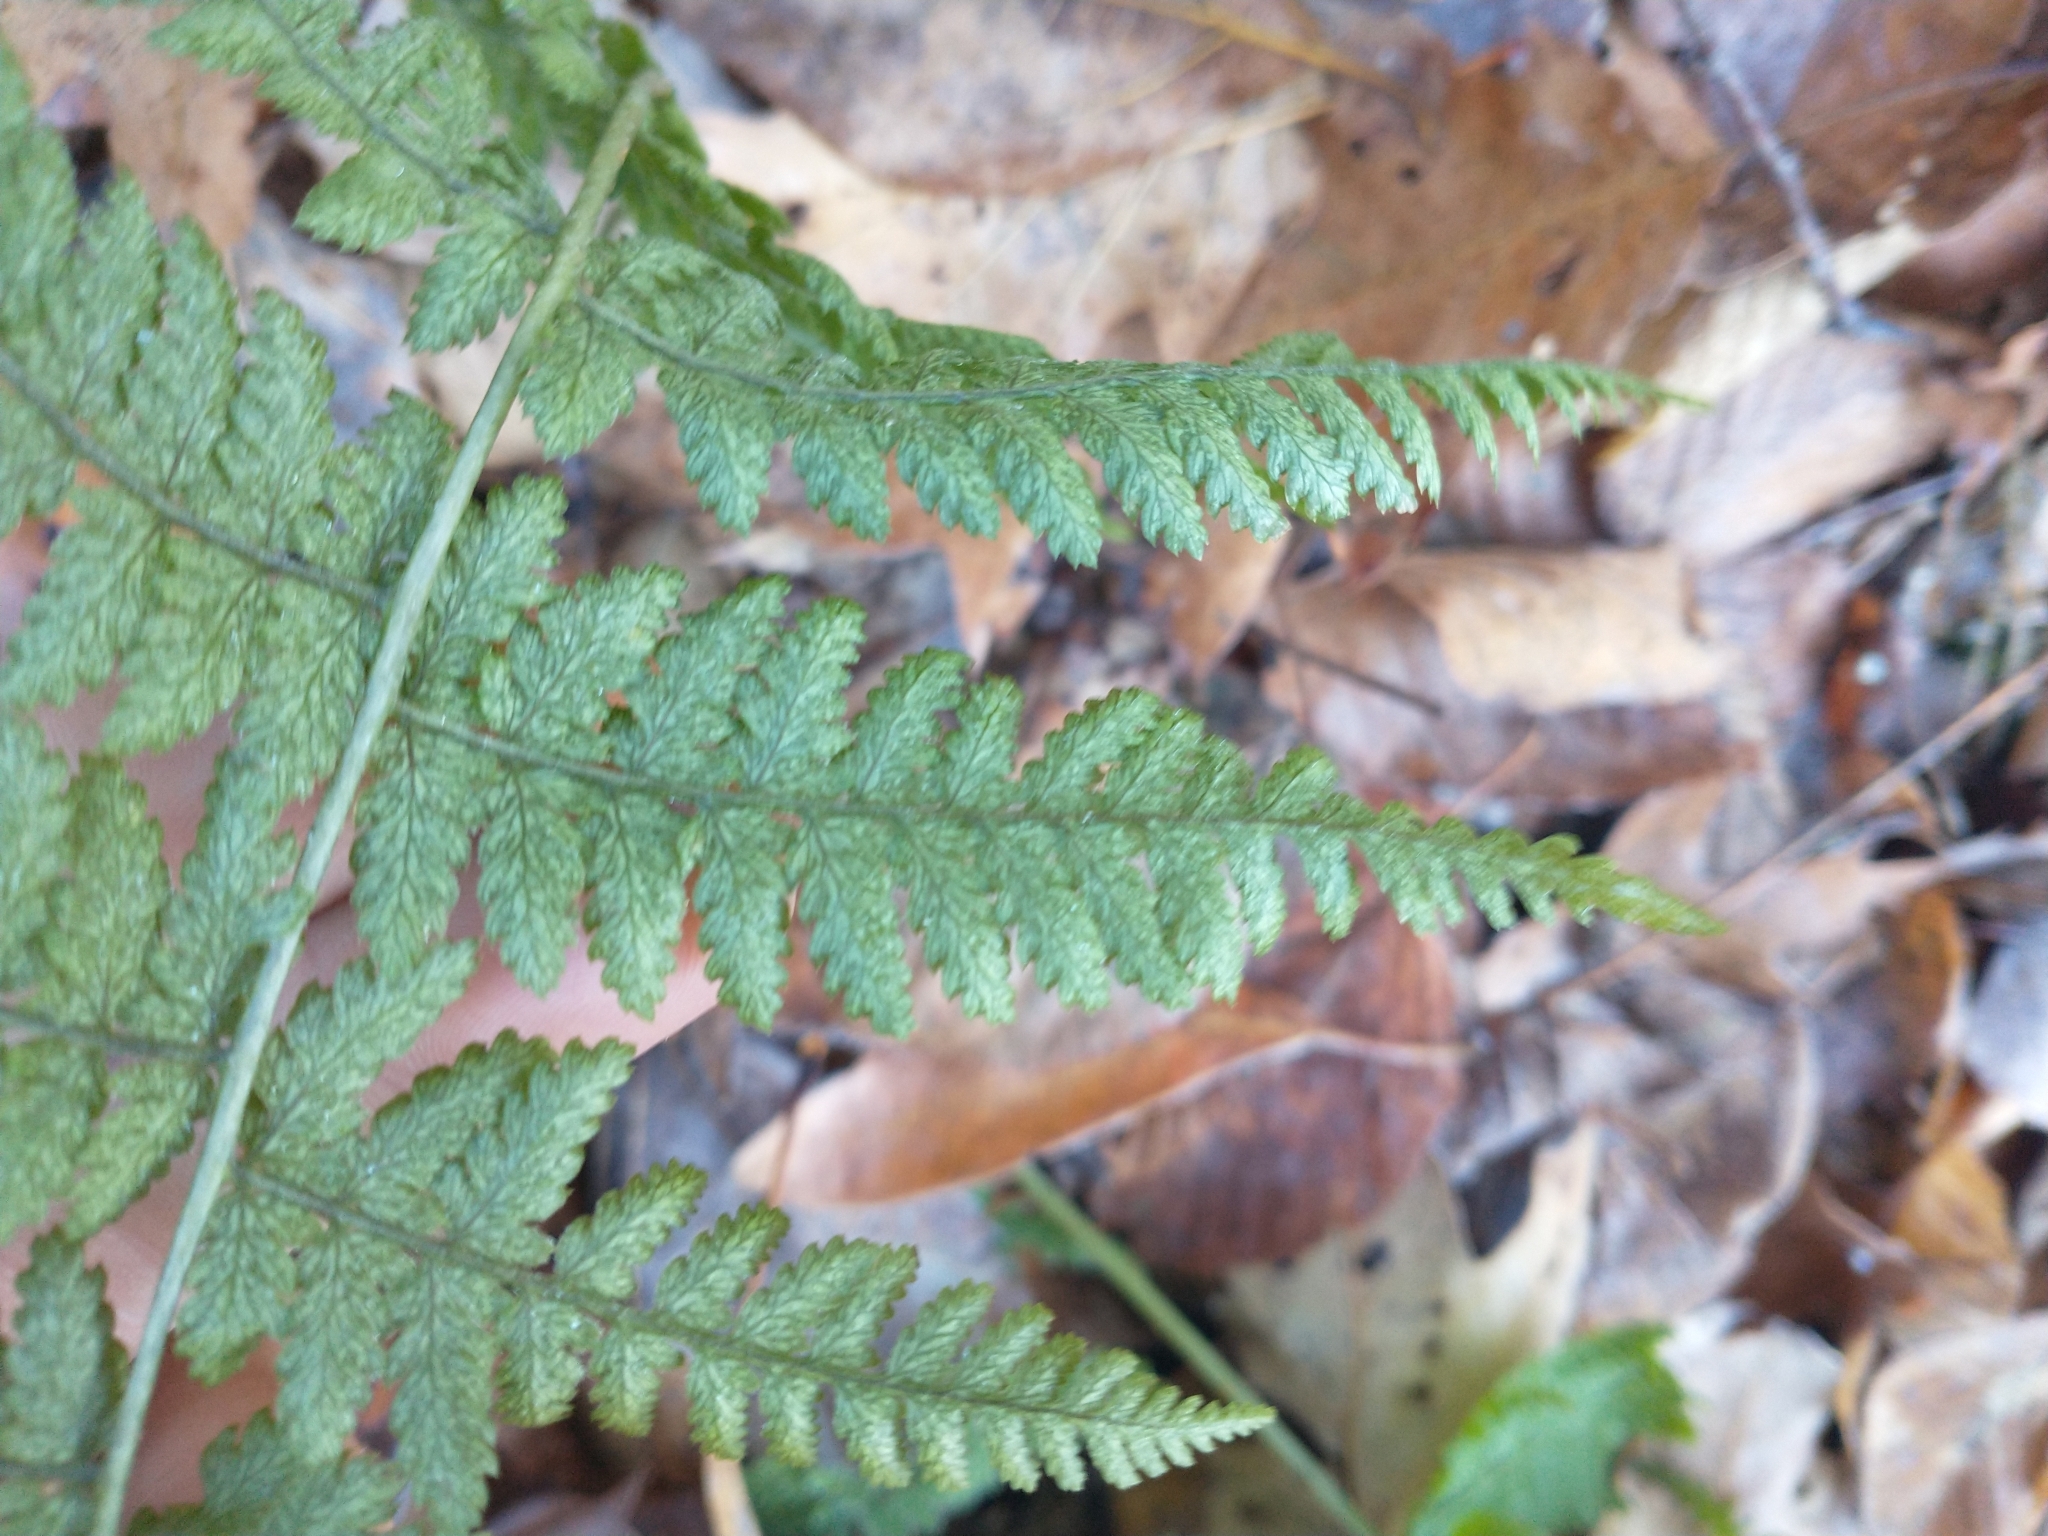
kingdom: Plantae
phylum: Tracheophyta
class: Polypodiopsida
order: Polypodiales
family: Dryopteridaceae
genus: Dryopteris
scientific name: Dryopteris intermedia
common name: Evergreen wood fern
